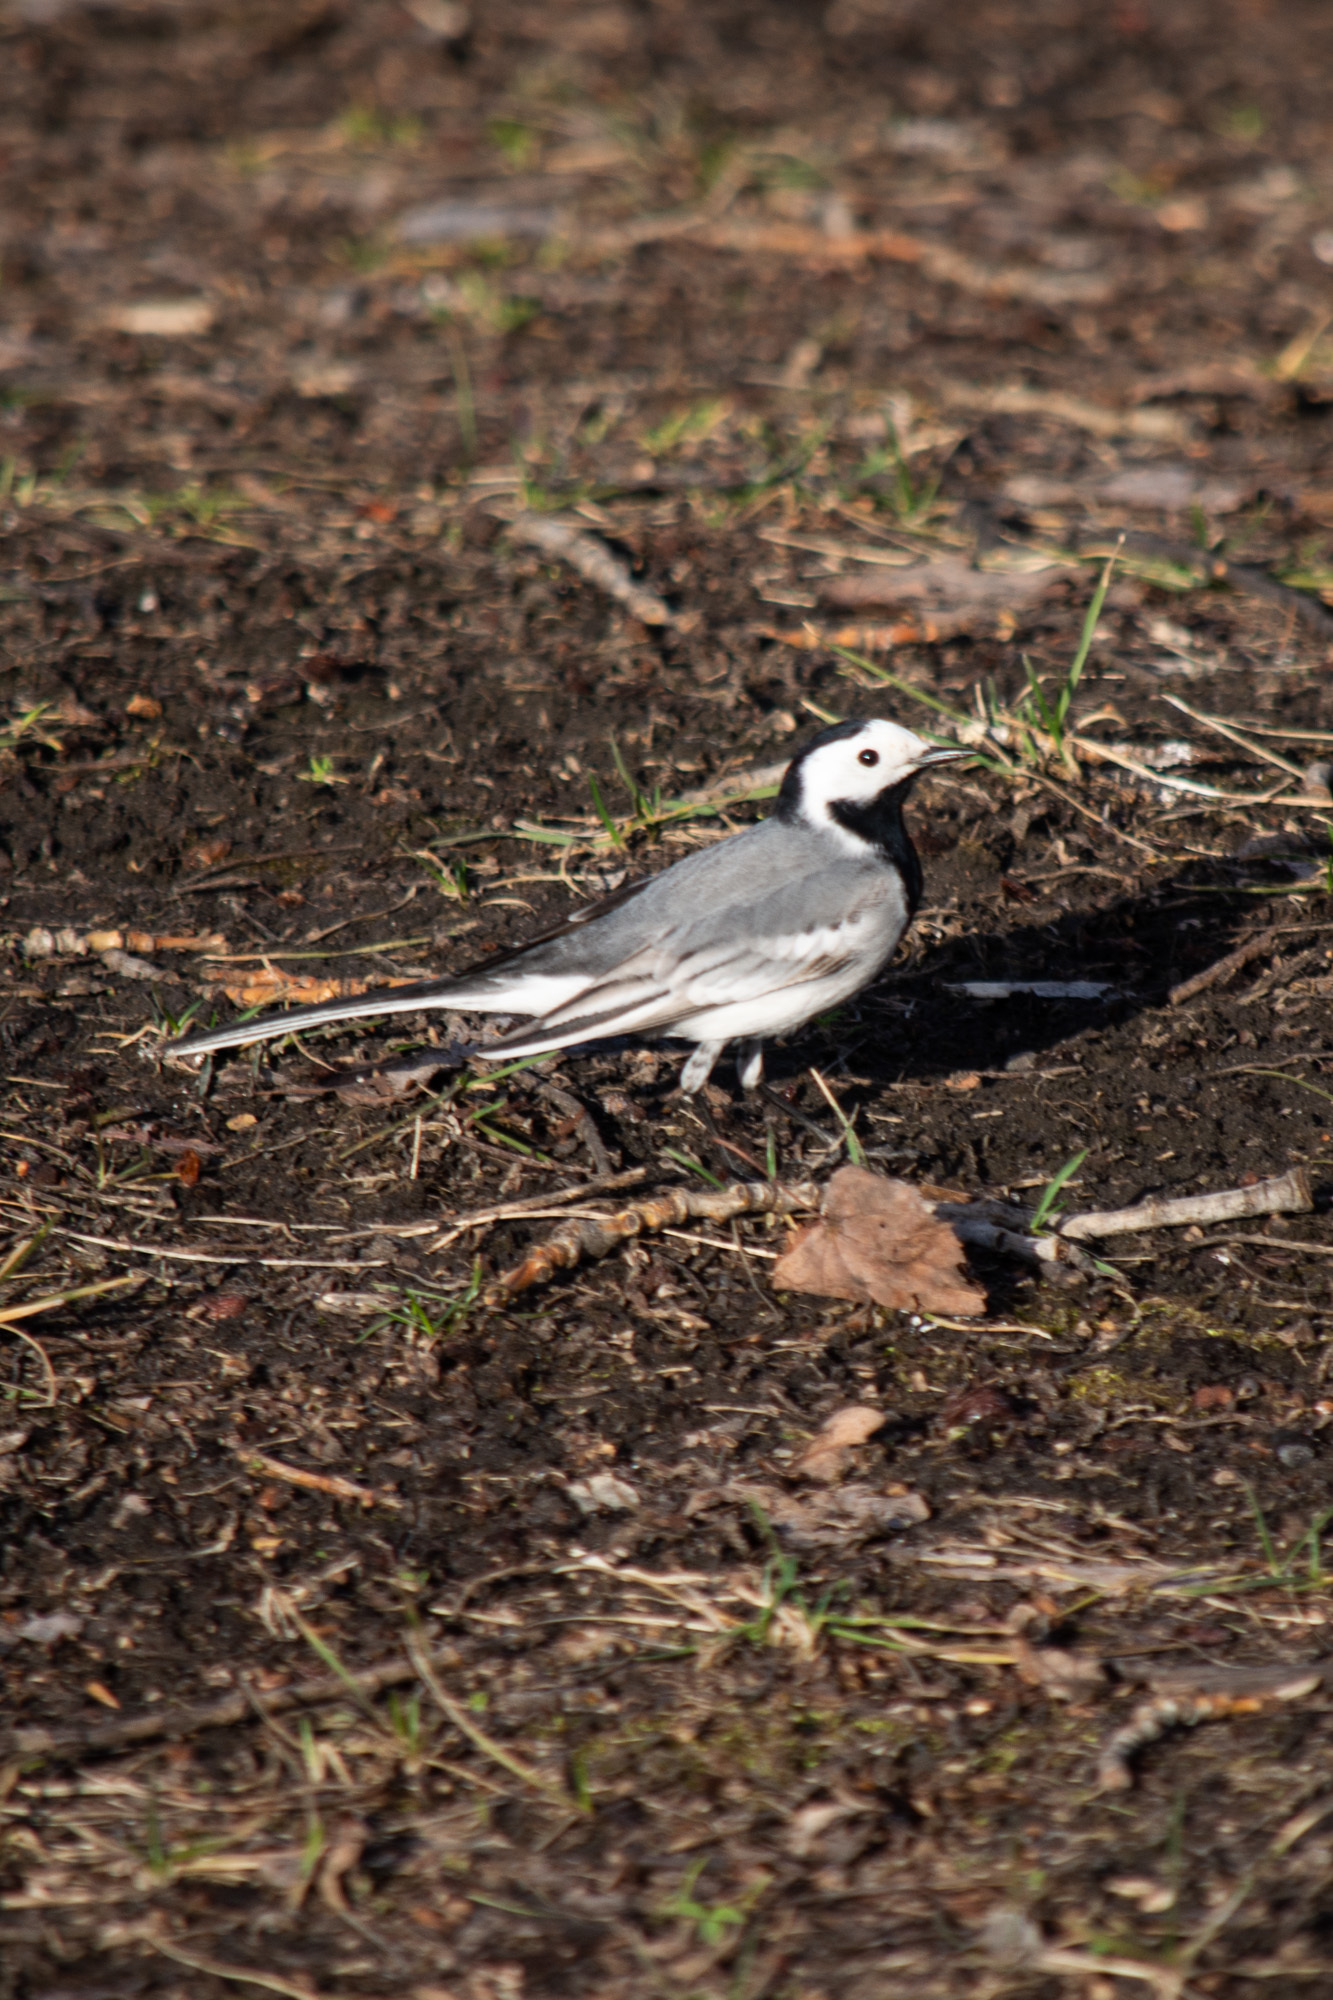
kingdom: Animalia
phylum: Chordata
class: Aves
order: Passeriformes
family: Motacillidae
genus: Motacilla
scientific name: Motacilla alba
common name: White wagtail
